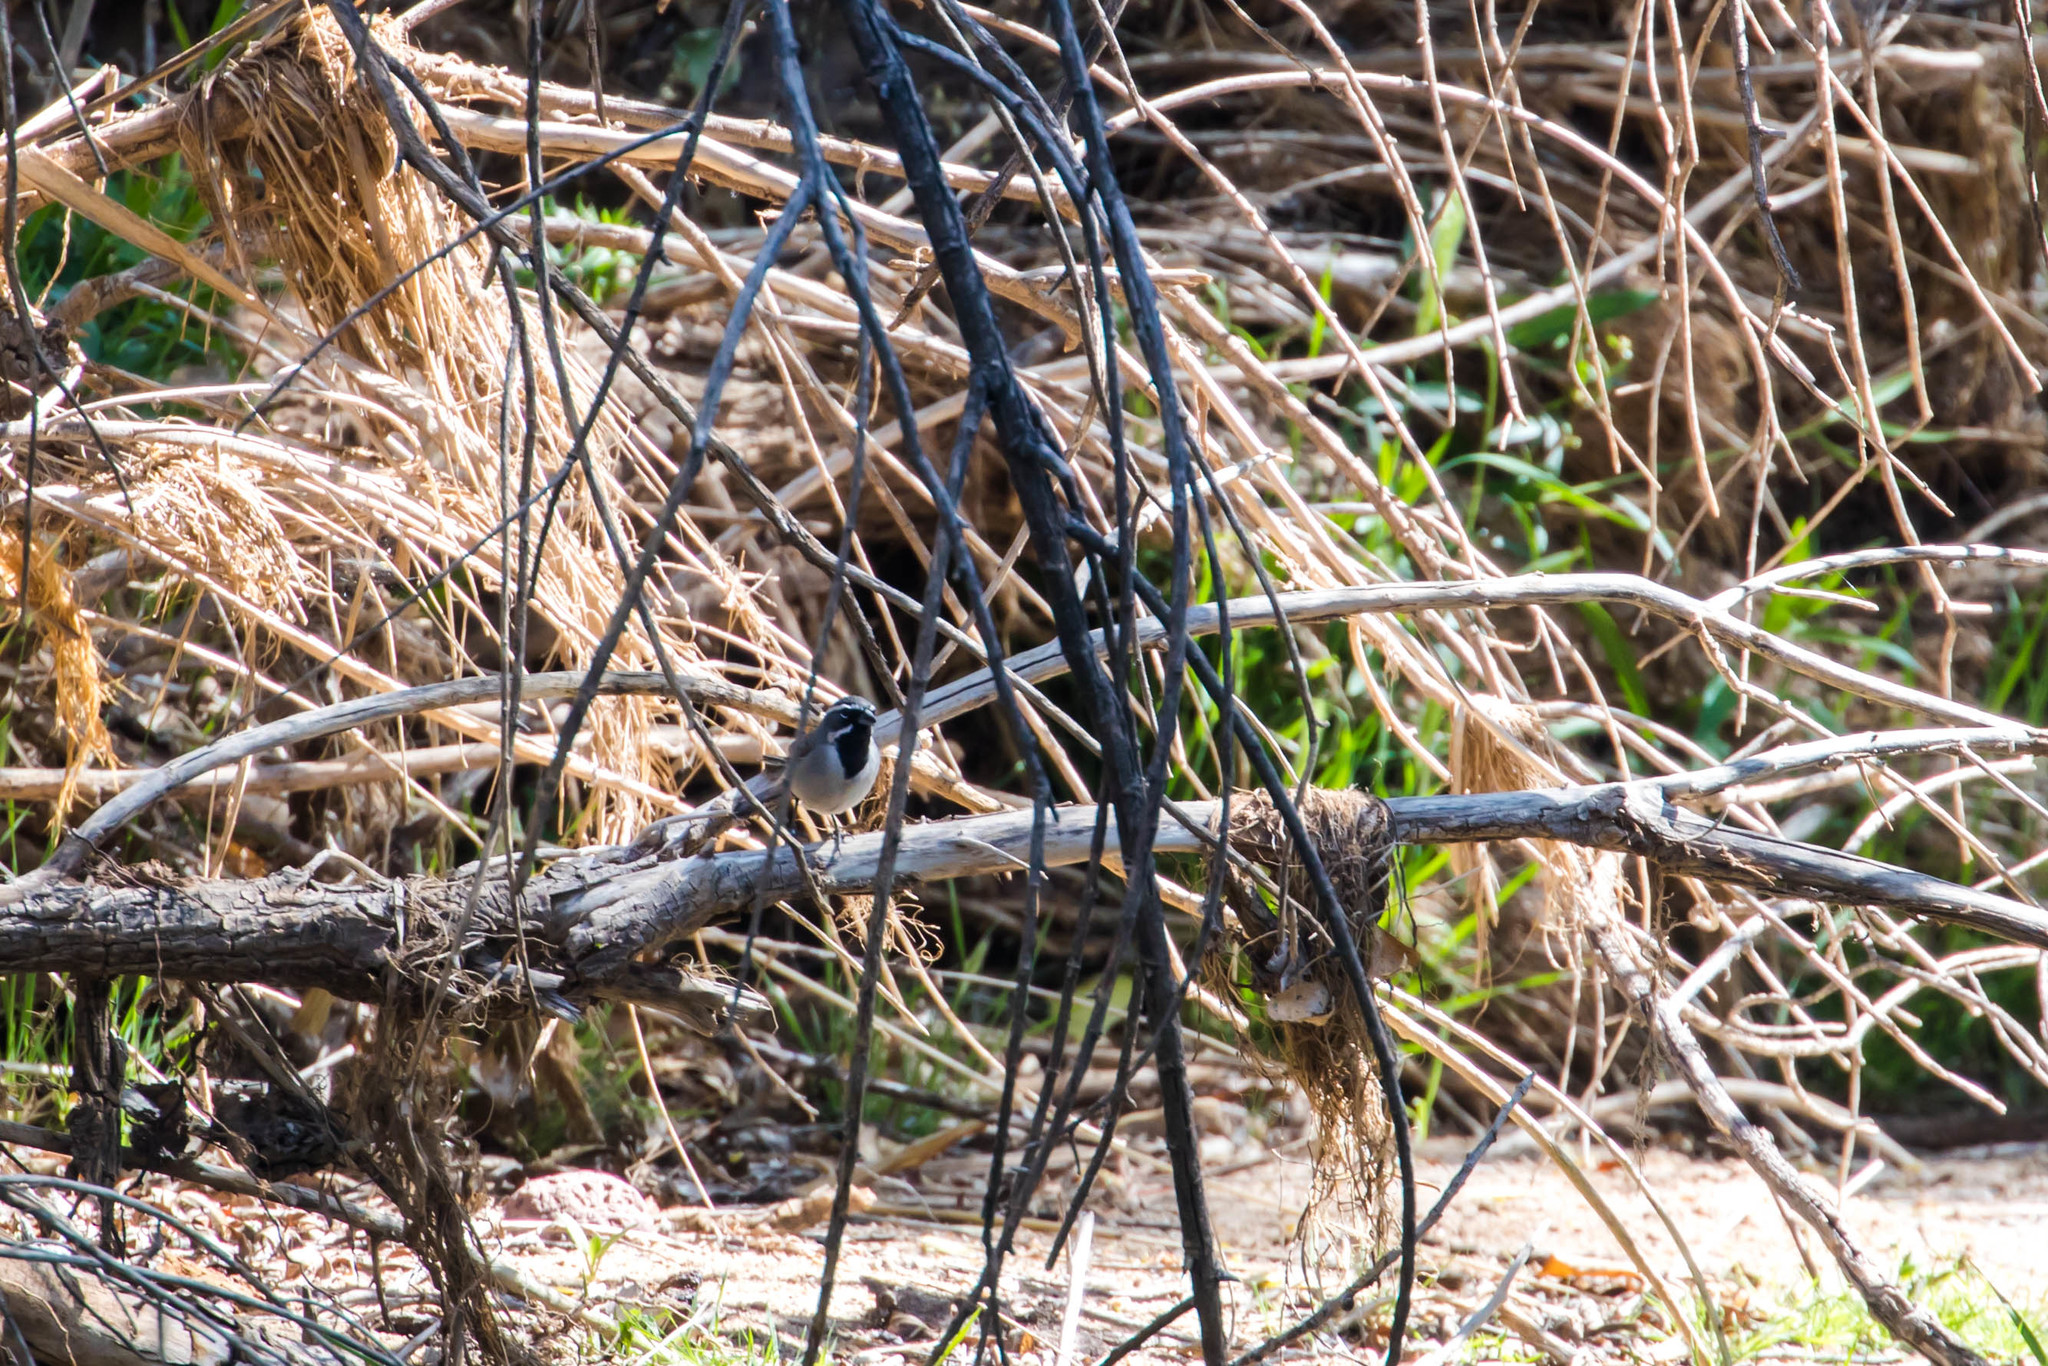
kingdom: Animalia
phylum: Chordata
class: Aves
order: Passeriformes
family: Passerellidae
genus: Amphispiza
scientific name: Amphispiza bilineata
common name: Black-throated sparrow
